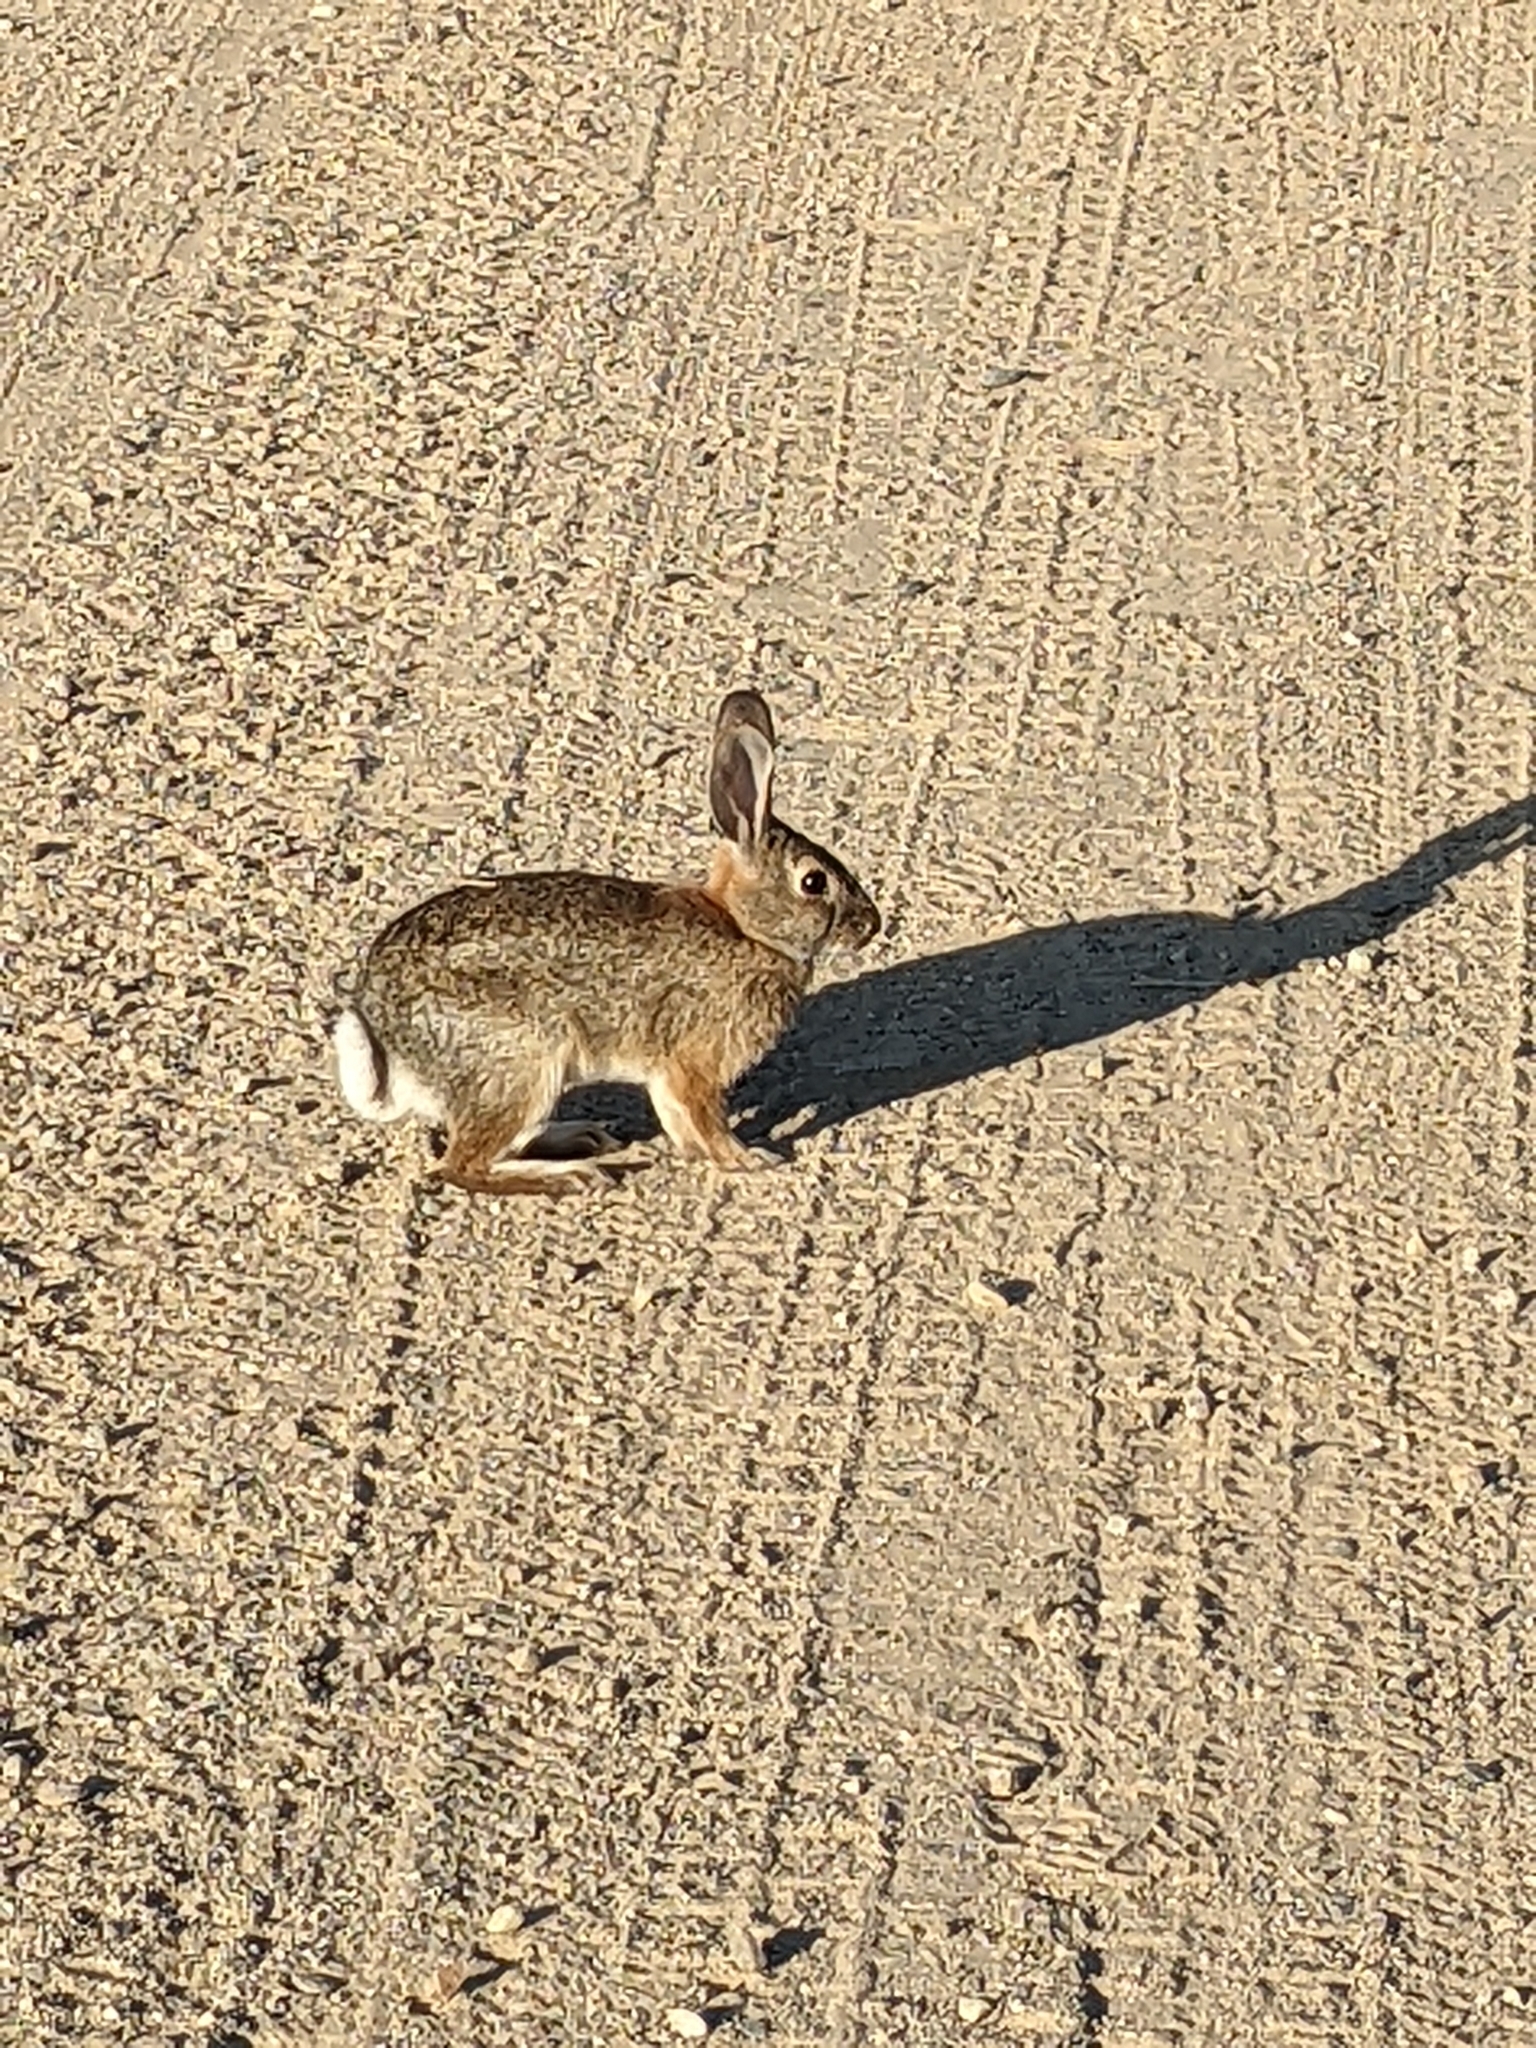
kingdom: Animalia
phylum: Chordata
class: Mammalia
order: Lagomorpha
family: Leporidae
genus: Sylvilagus
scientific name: Sylvilagus audubonii
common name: Desert cottontail
